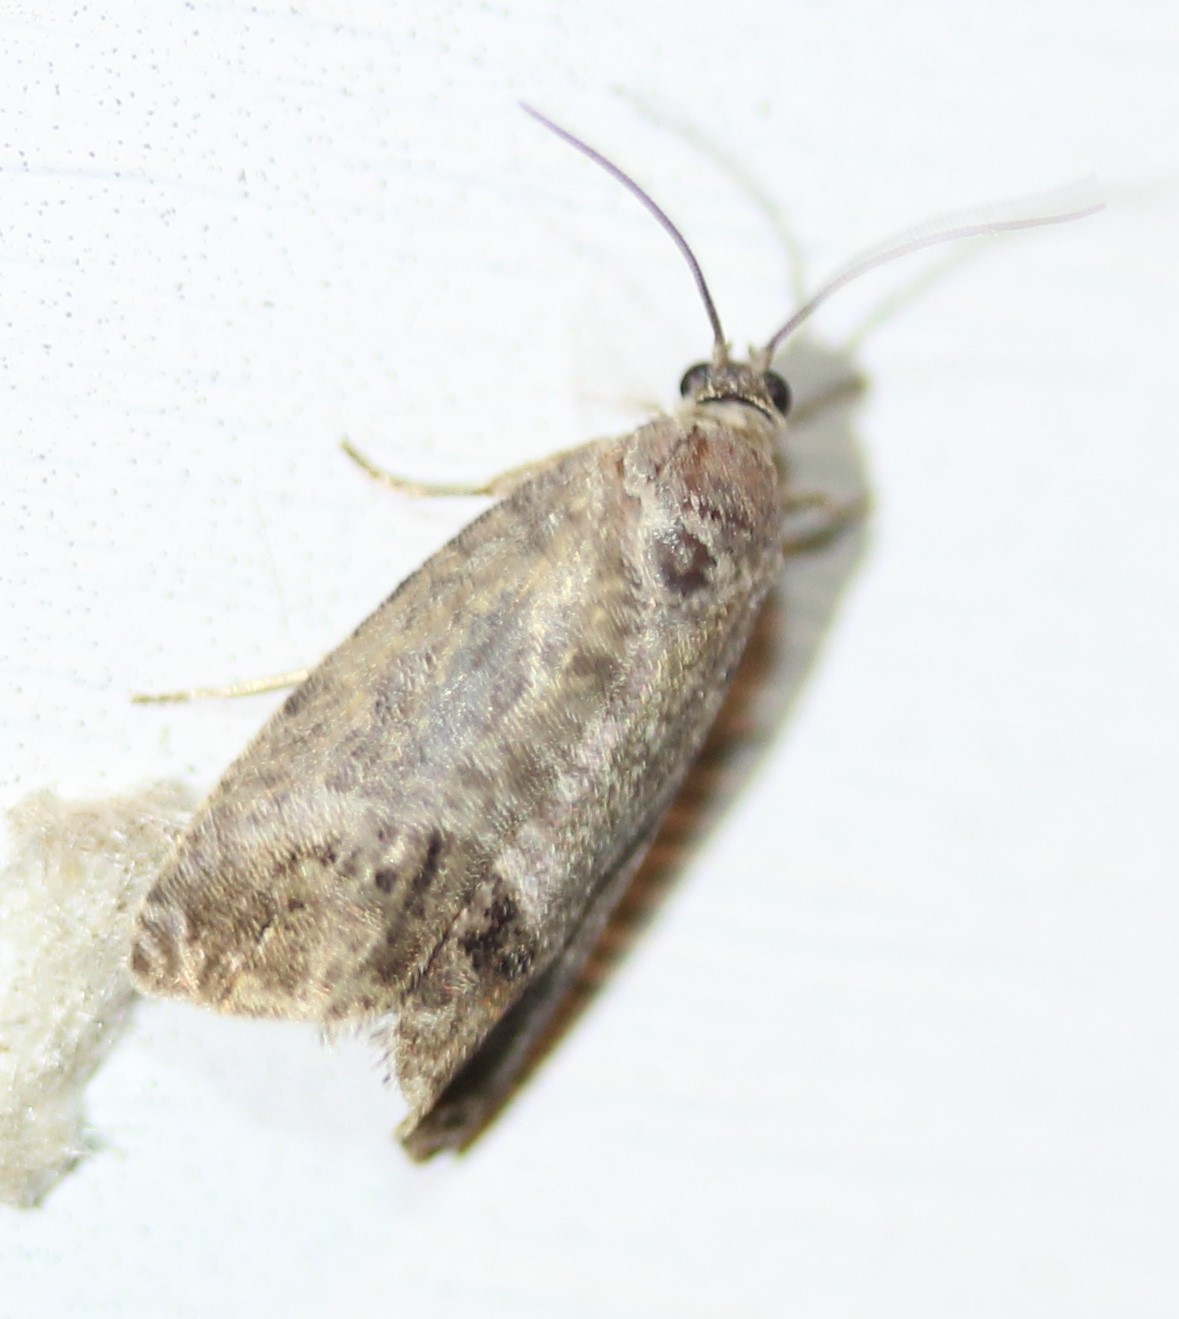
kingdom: Animalia
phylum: Arthropoda
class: Insecta
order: Lepidoptera
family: Tortricidae
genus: Cydia
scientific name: Cydia pomonella
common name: Codling moth
